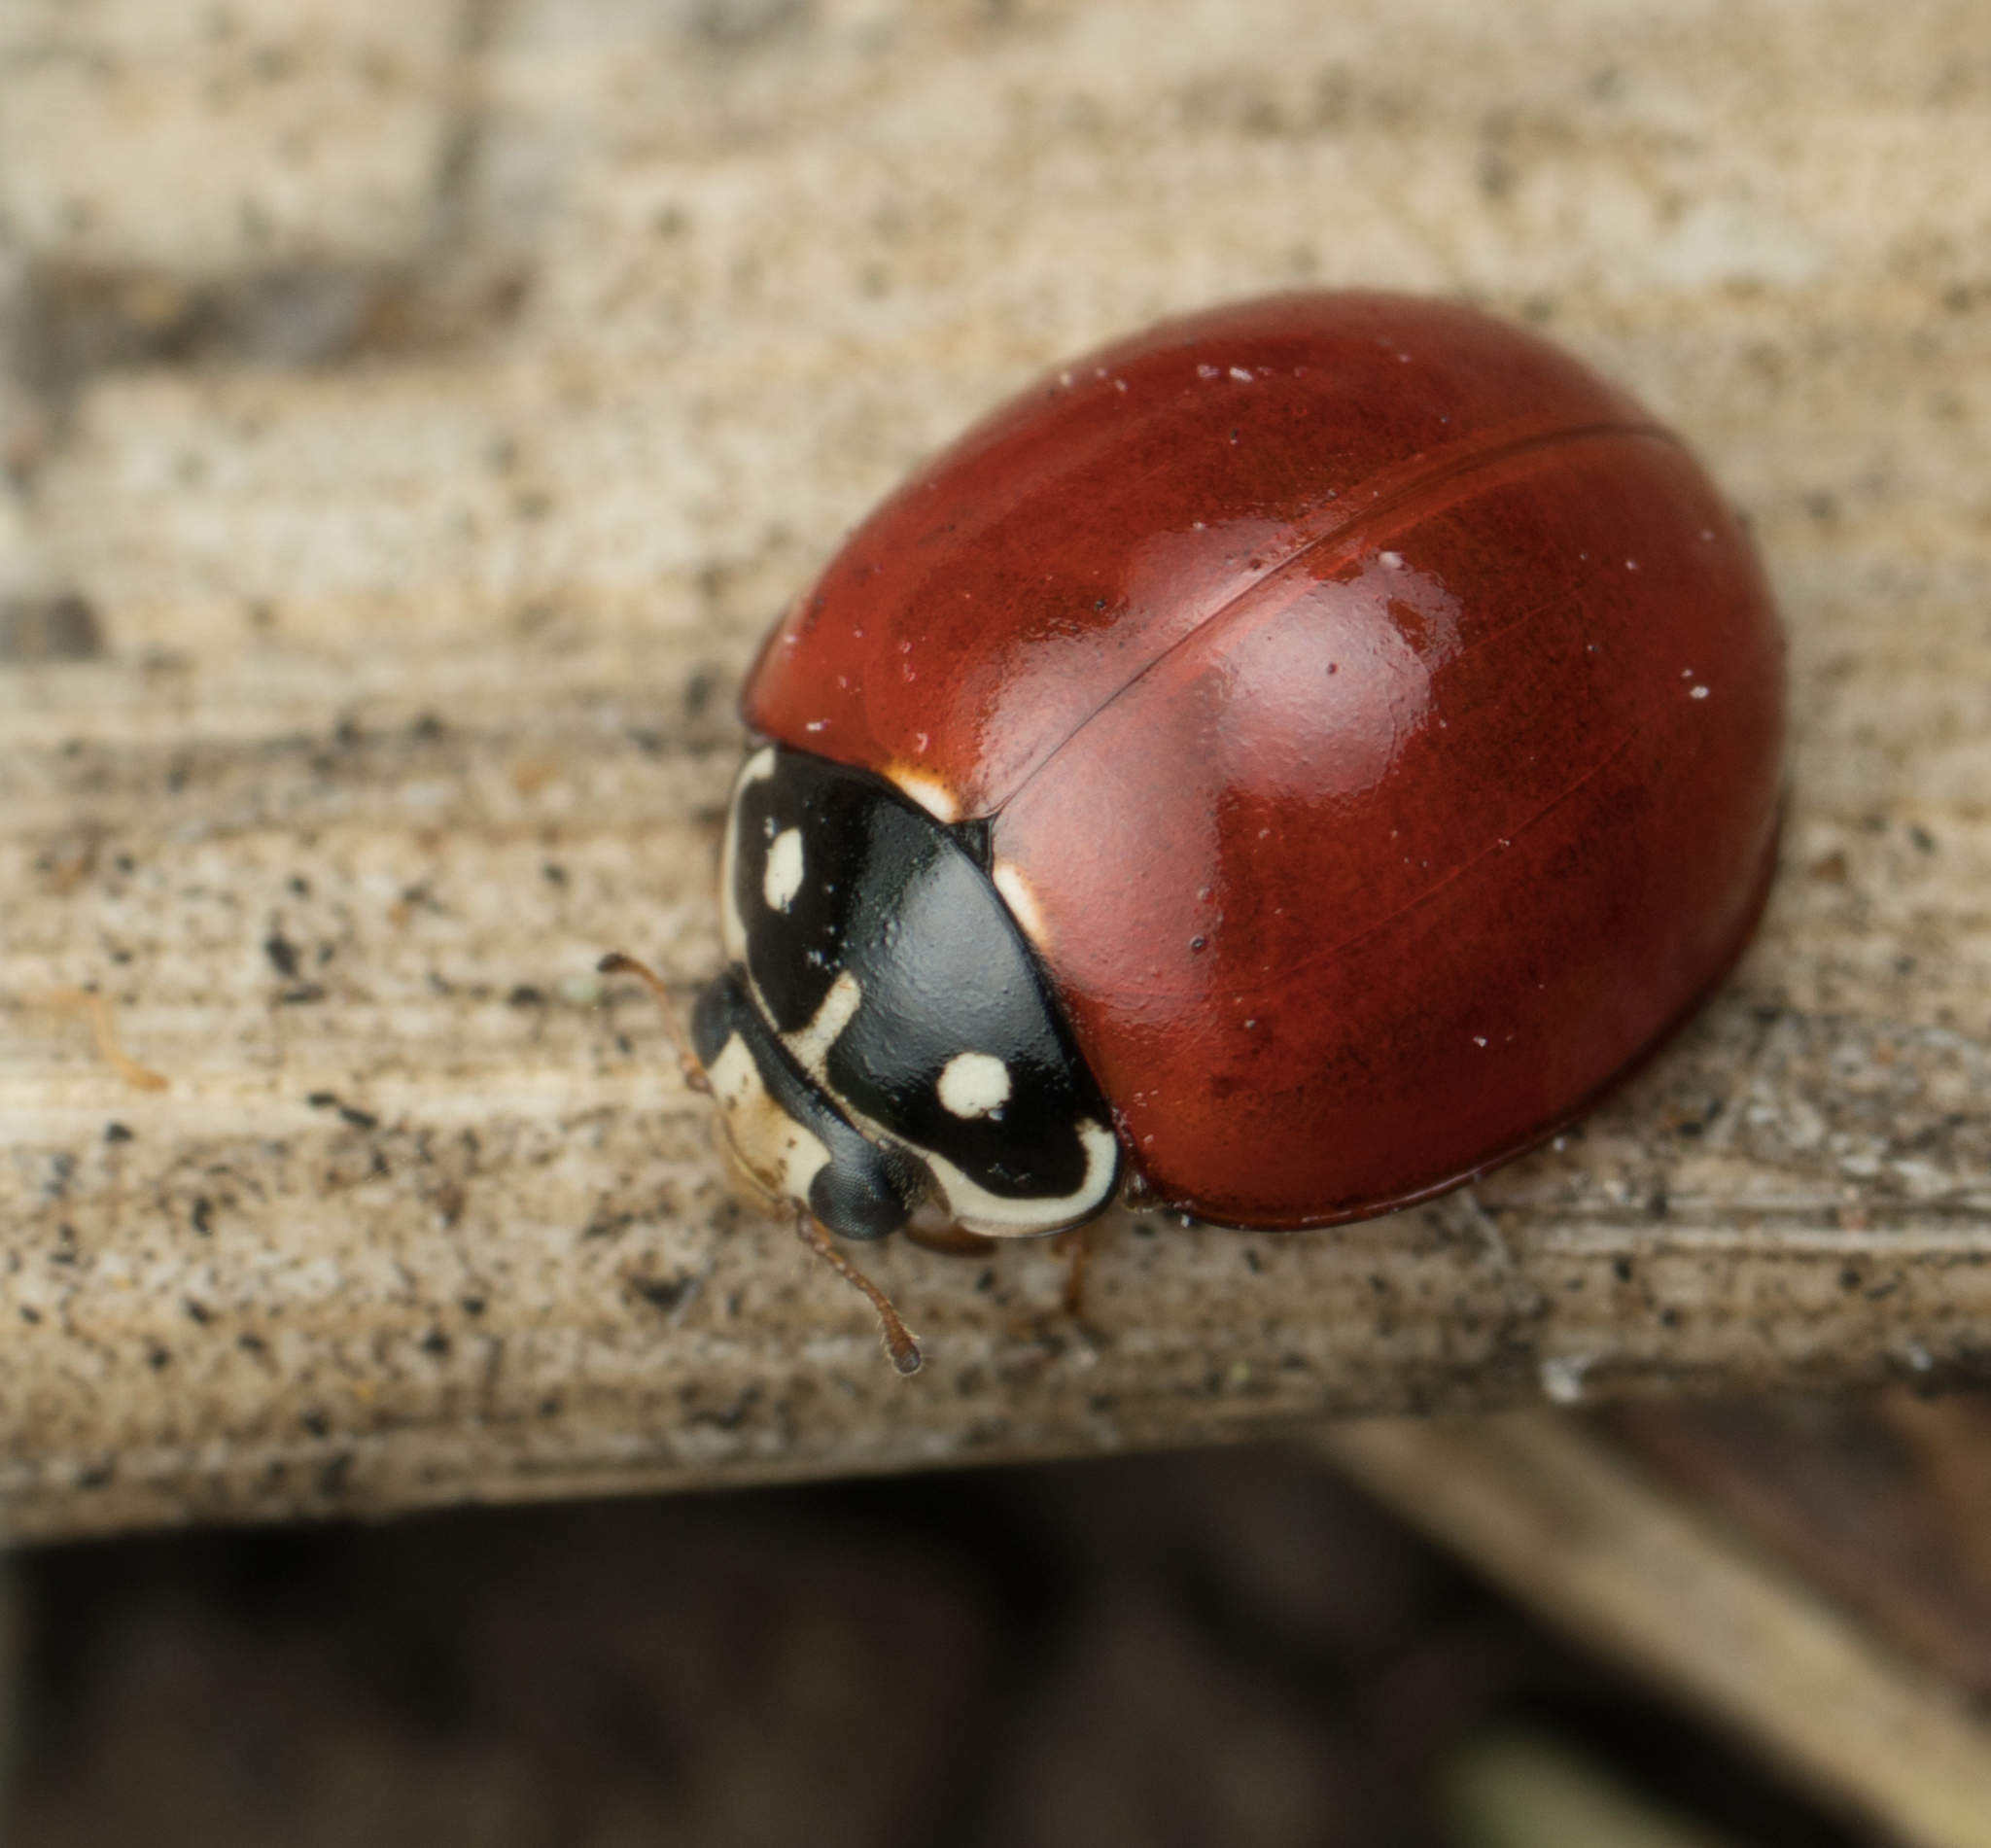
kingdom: Animalia
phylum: Arthropoda
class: Insecta
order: Coleoptera
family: Coccinellidae
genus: Cycloneda
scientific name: Cycloneda sanguinea
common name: Ladybird beetle
